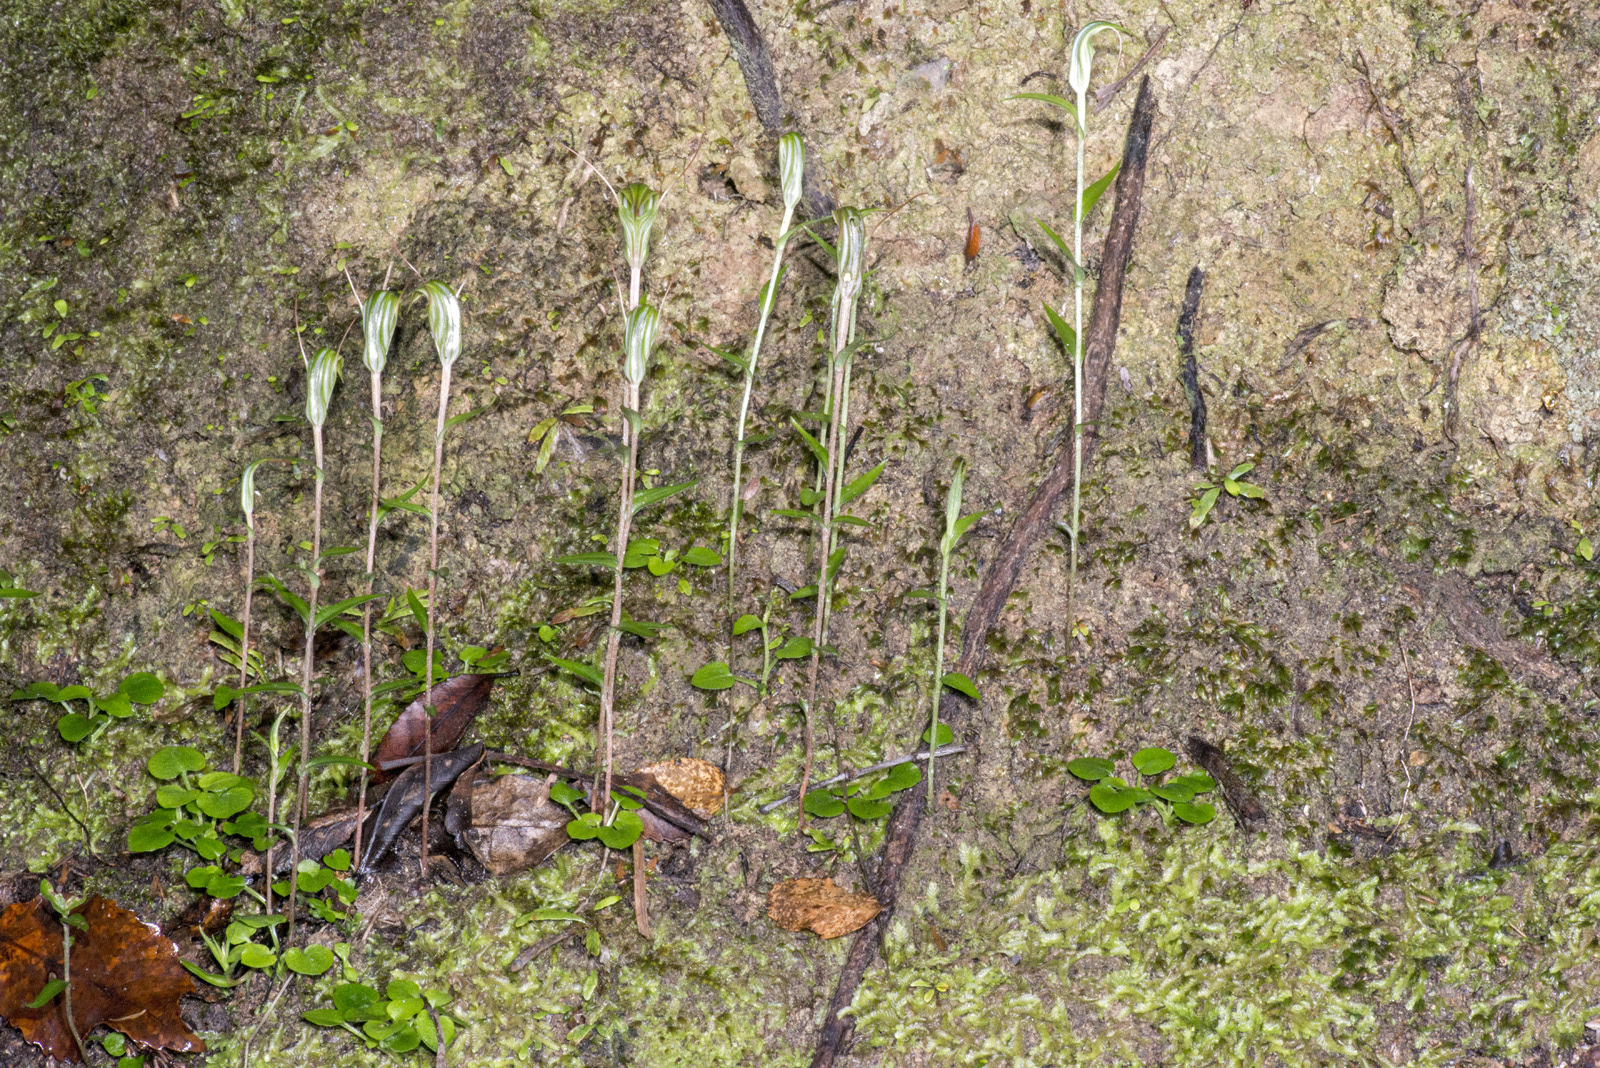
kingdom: Plantae
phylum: Tracheophyta
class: Liliopsida
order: Asparagales
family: Orchidaceae
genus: Pterostylis
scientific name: Pterostylis trullifolia
